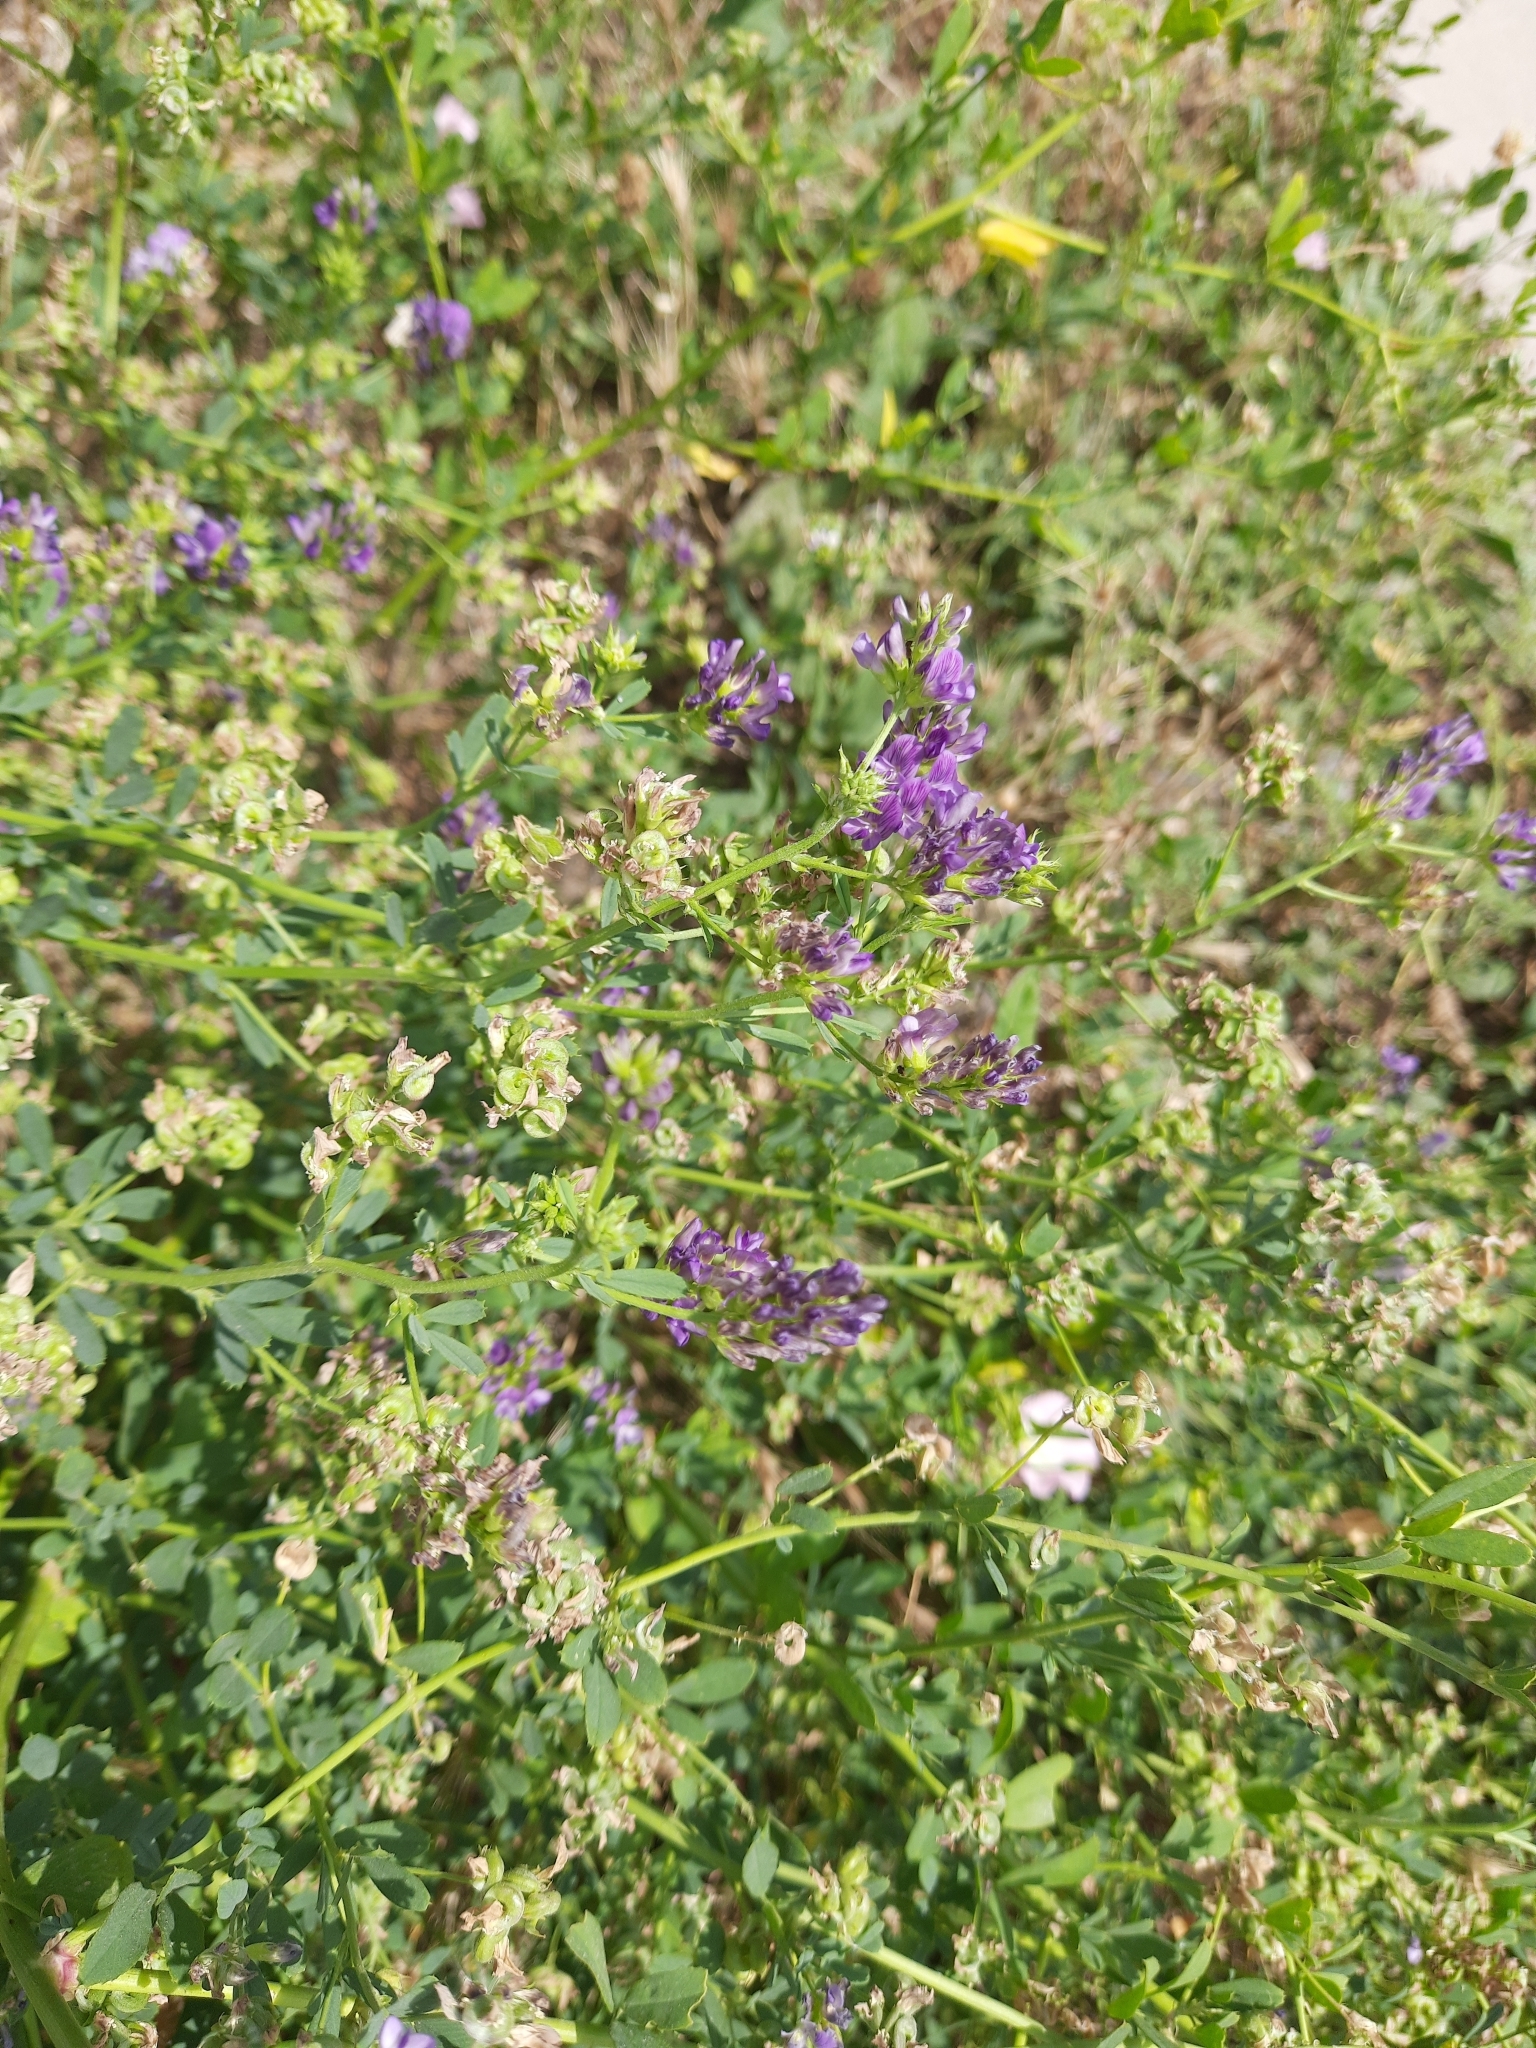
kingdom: Plantae
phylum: Tracheophyta
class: Magnoliopsida
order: Fabales
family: Fabaceae
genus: Medicago
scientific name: Medicago sativa
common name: Alfalfa
